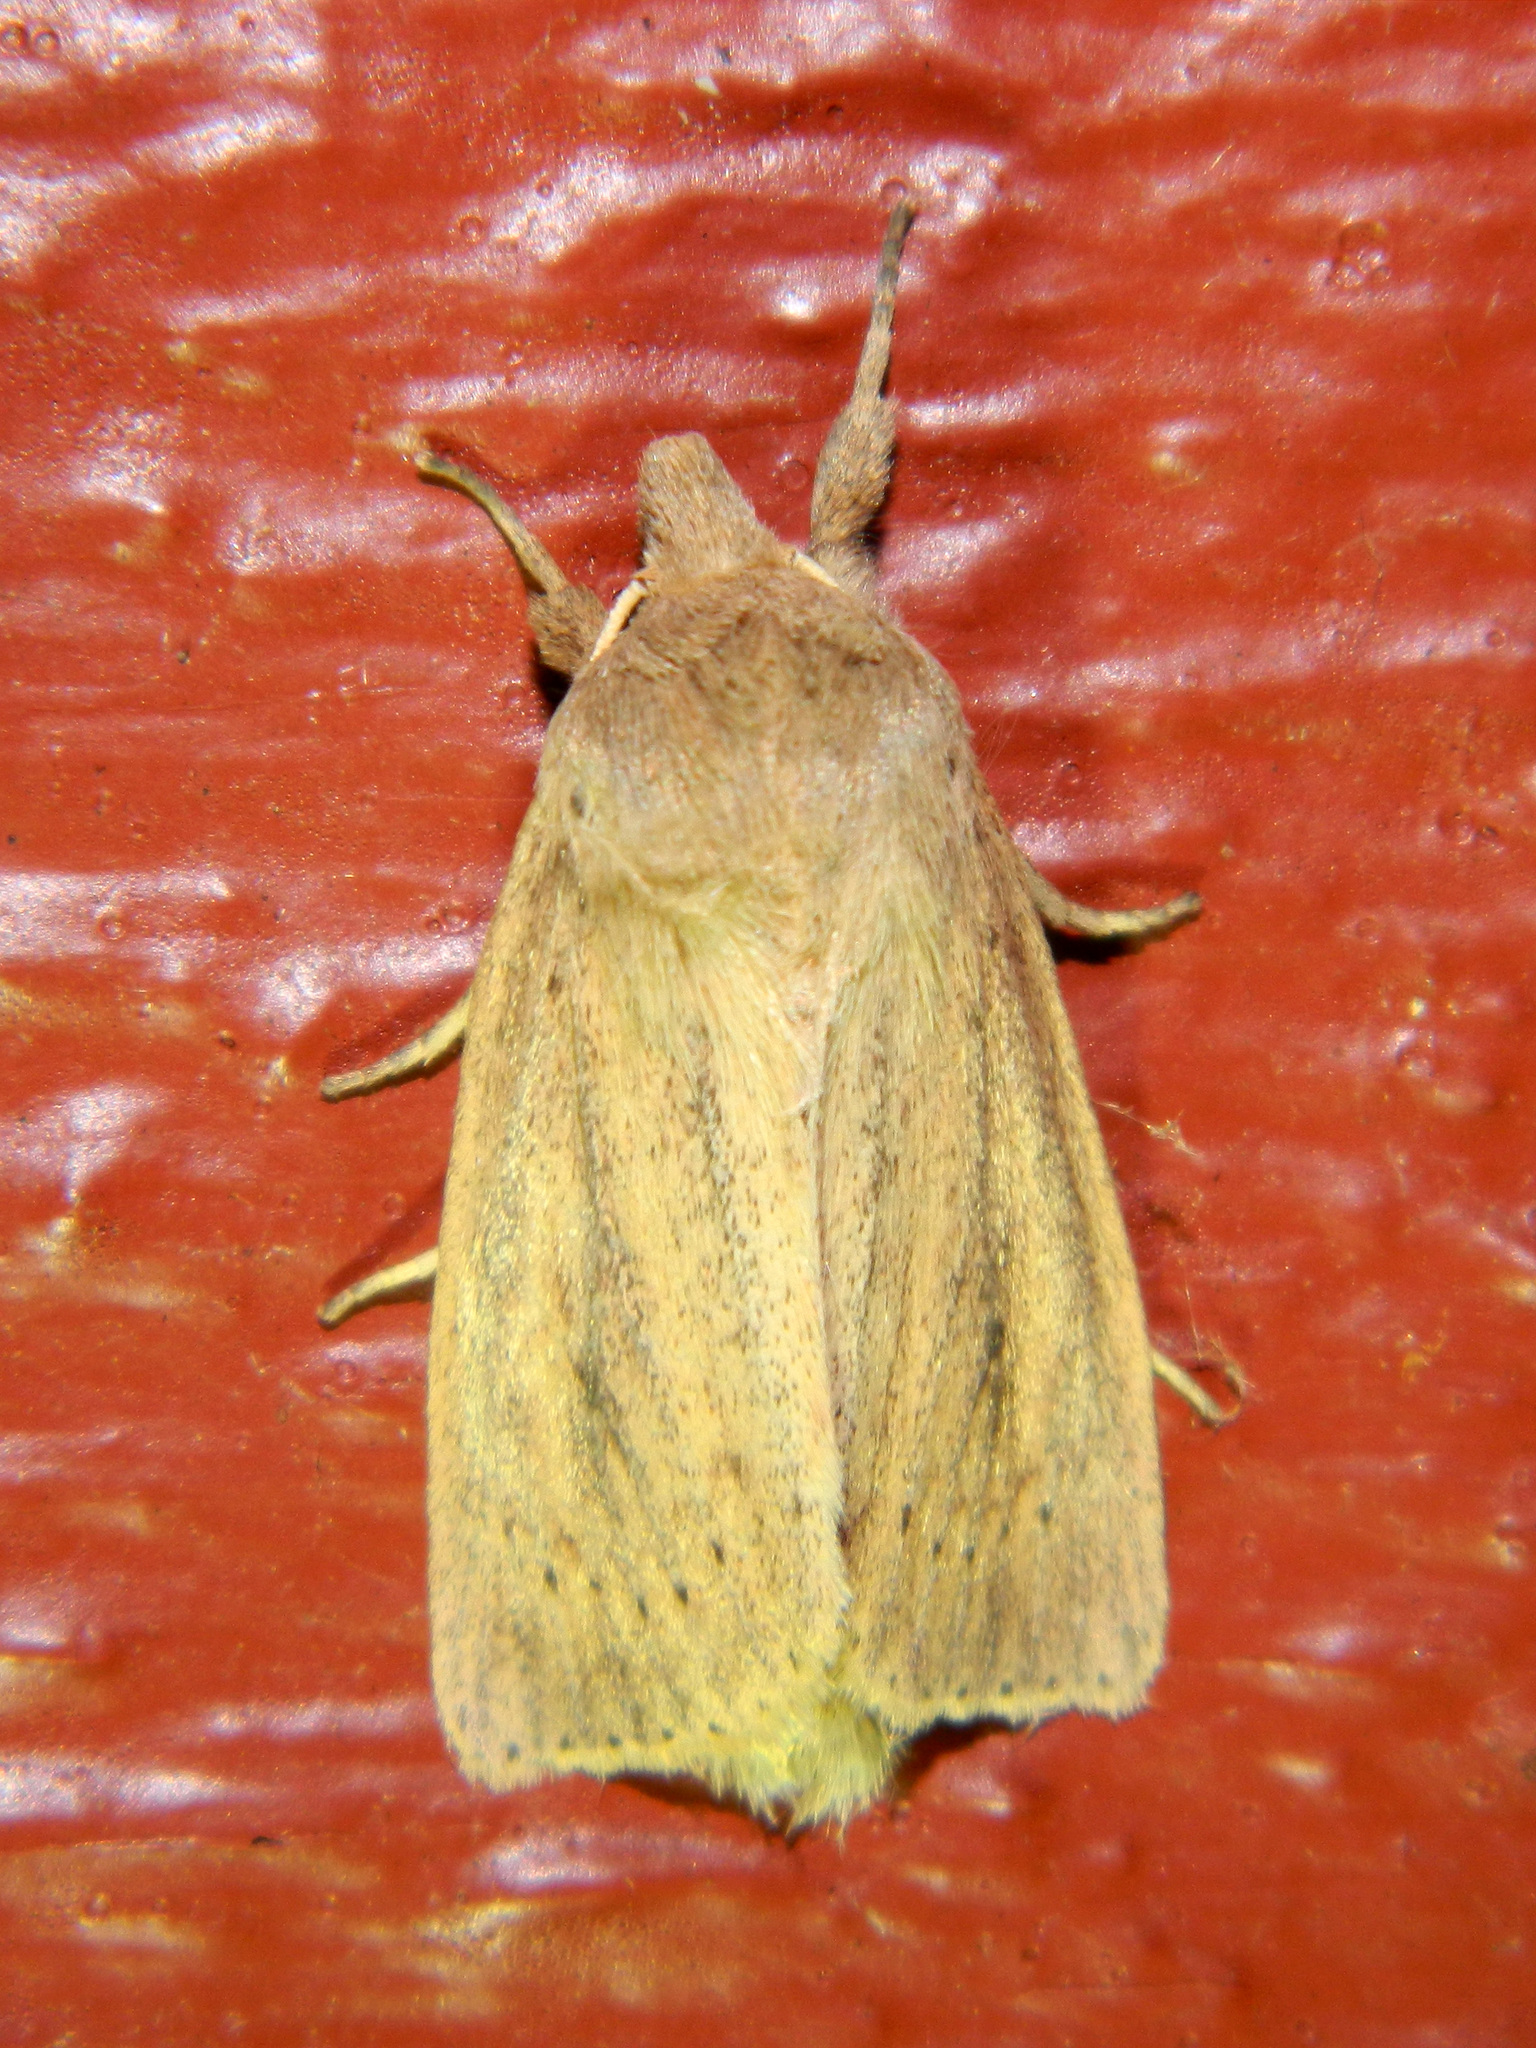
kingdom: Animalia
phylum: Arthropoda
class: Insecta
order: Lepidoptera
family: Noctuidae
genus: Globia
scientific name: Globia oblonga
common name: Oblong sedge borer moth
